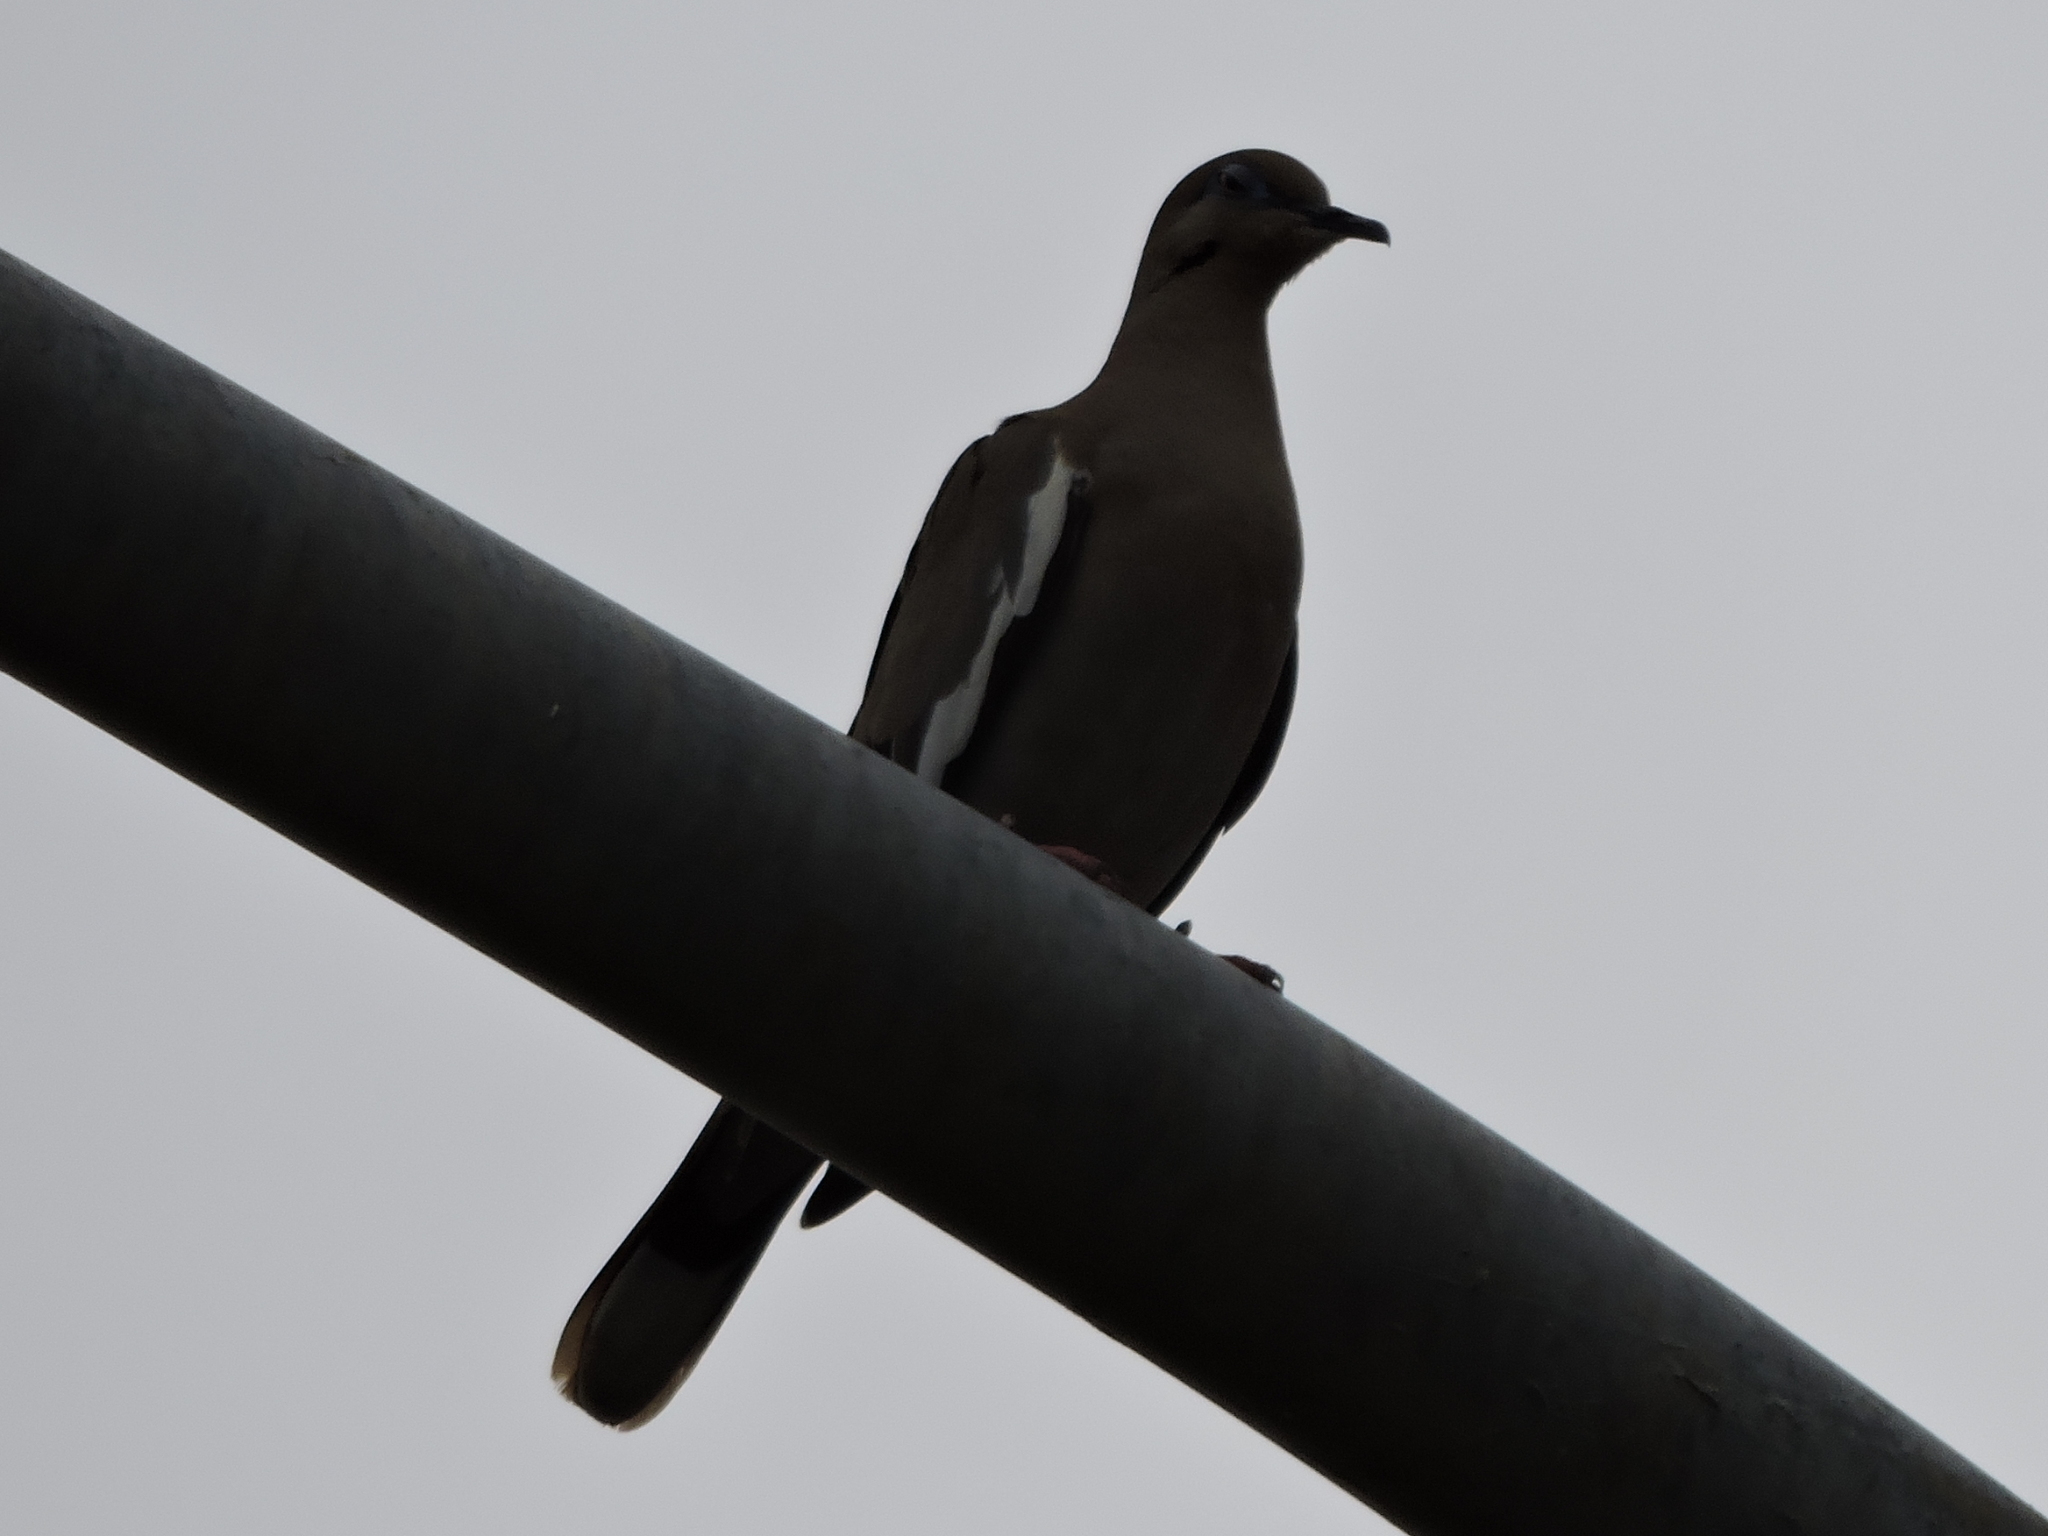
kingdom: Animalia
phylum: Chordata
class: Aves
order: Columbiformes
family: Columbidae
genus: Zenaida
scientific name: Zenaida asiatica
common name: White-winged dove
